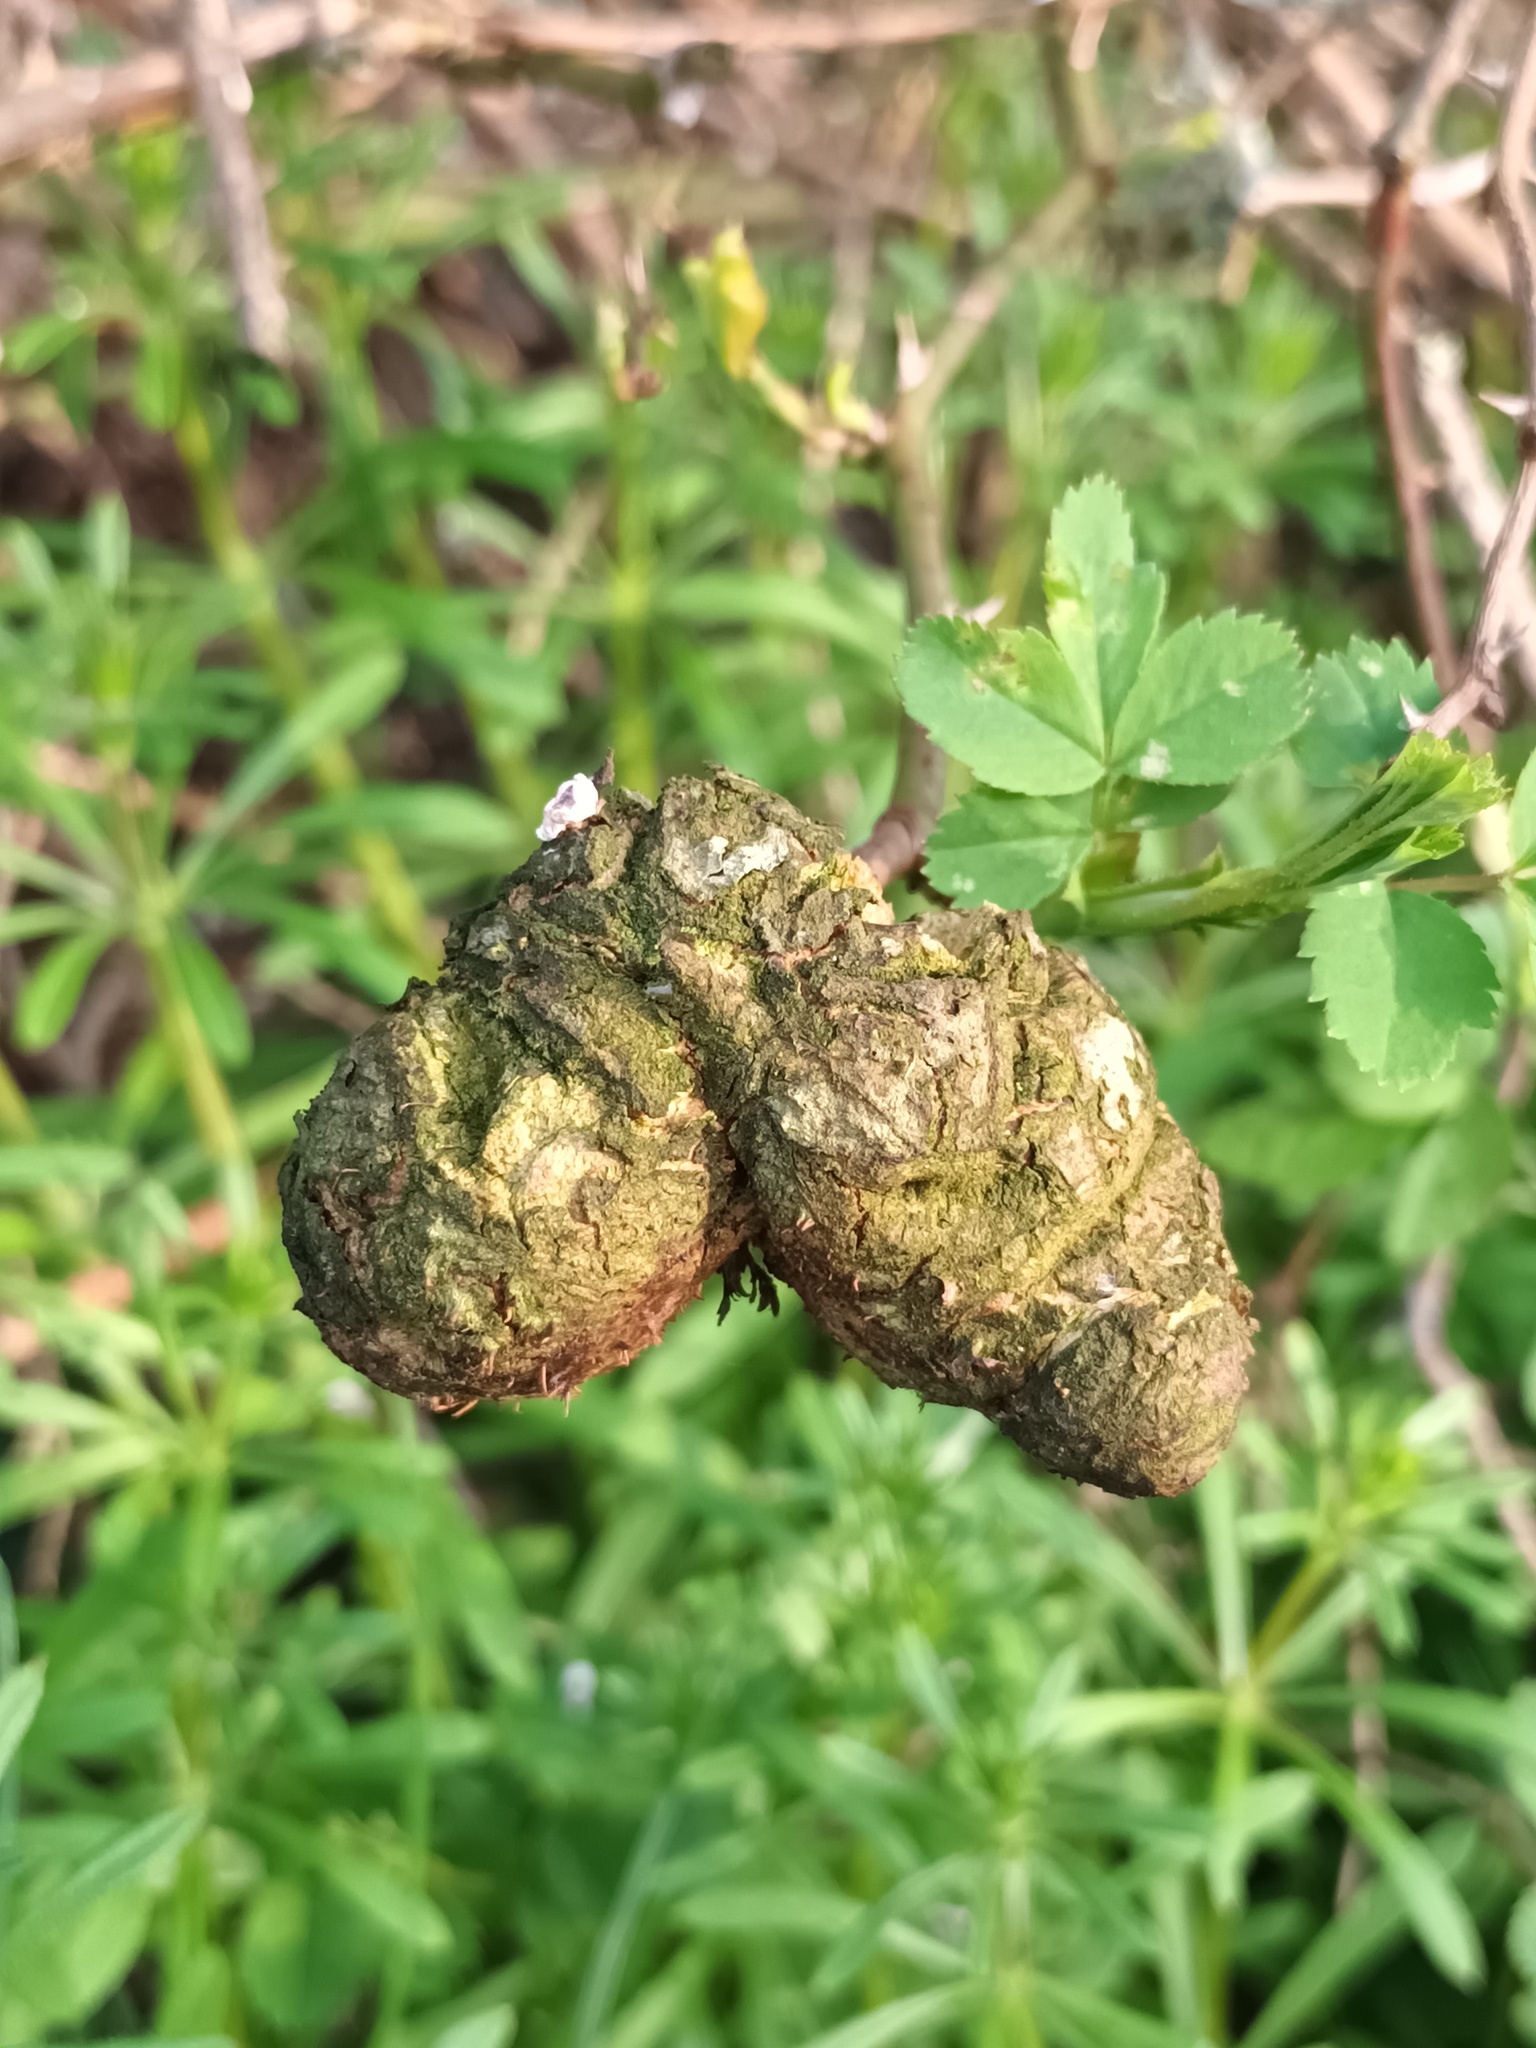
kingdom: Animalia
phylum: Arthropoda
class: Insecta
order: Hymenoptera
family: Cynipidae
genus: Diplolepis
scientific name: Diplolepis mayri
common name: Gall wasp
